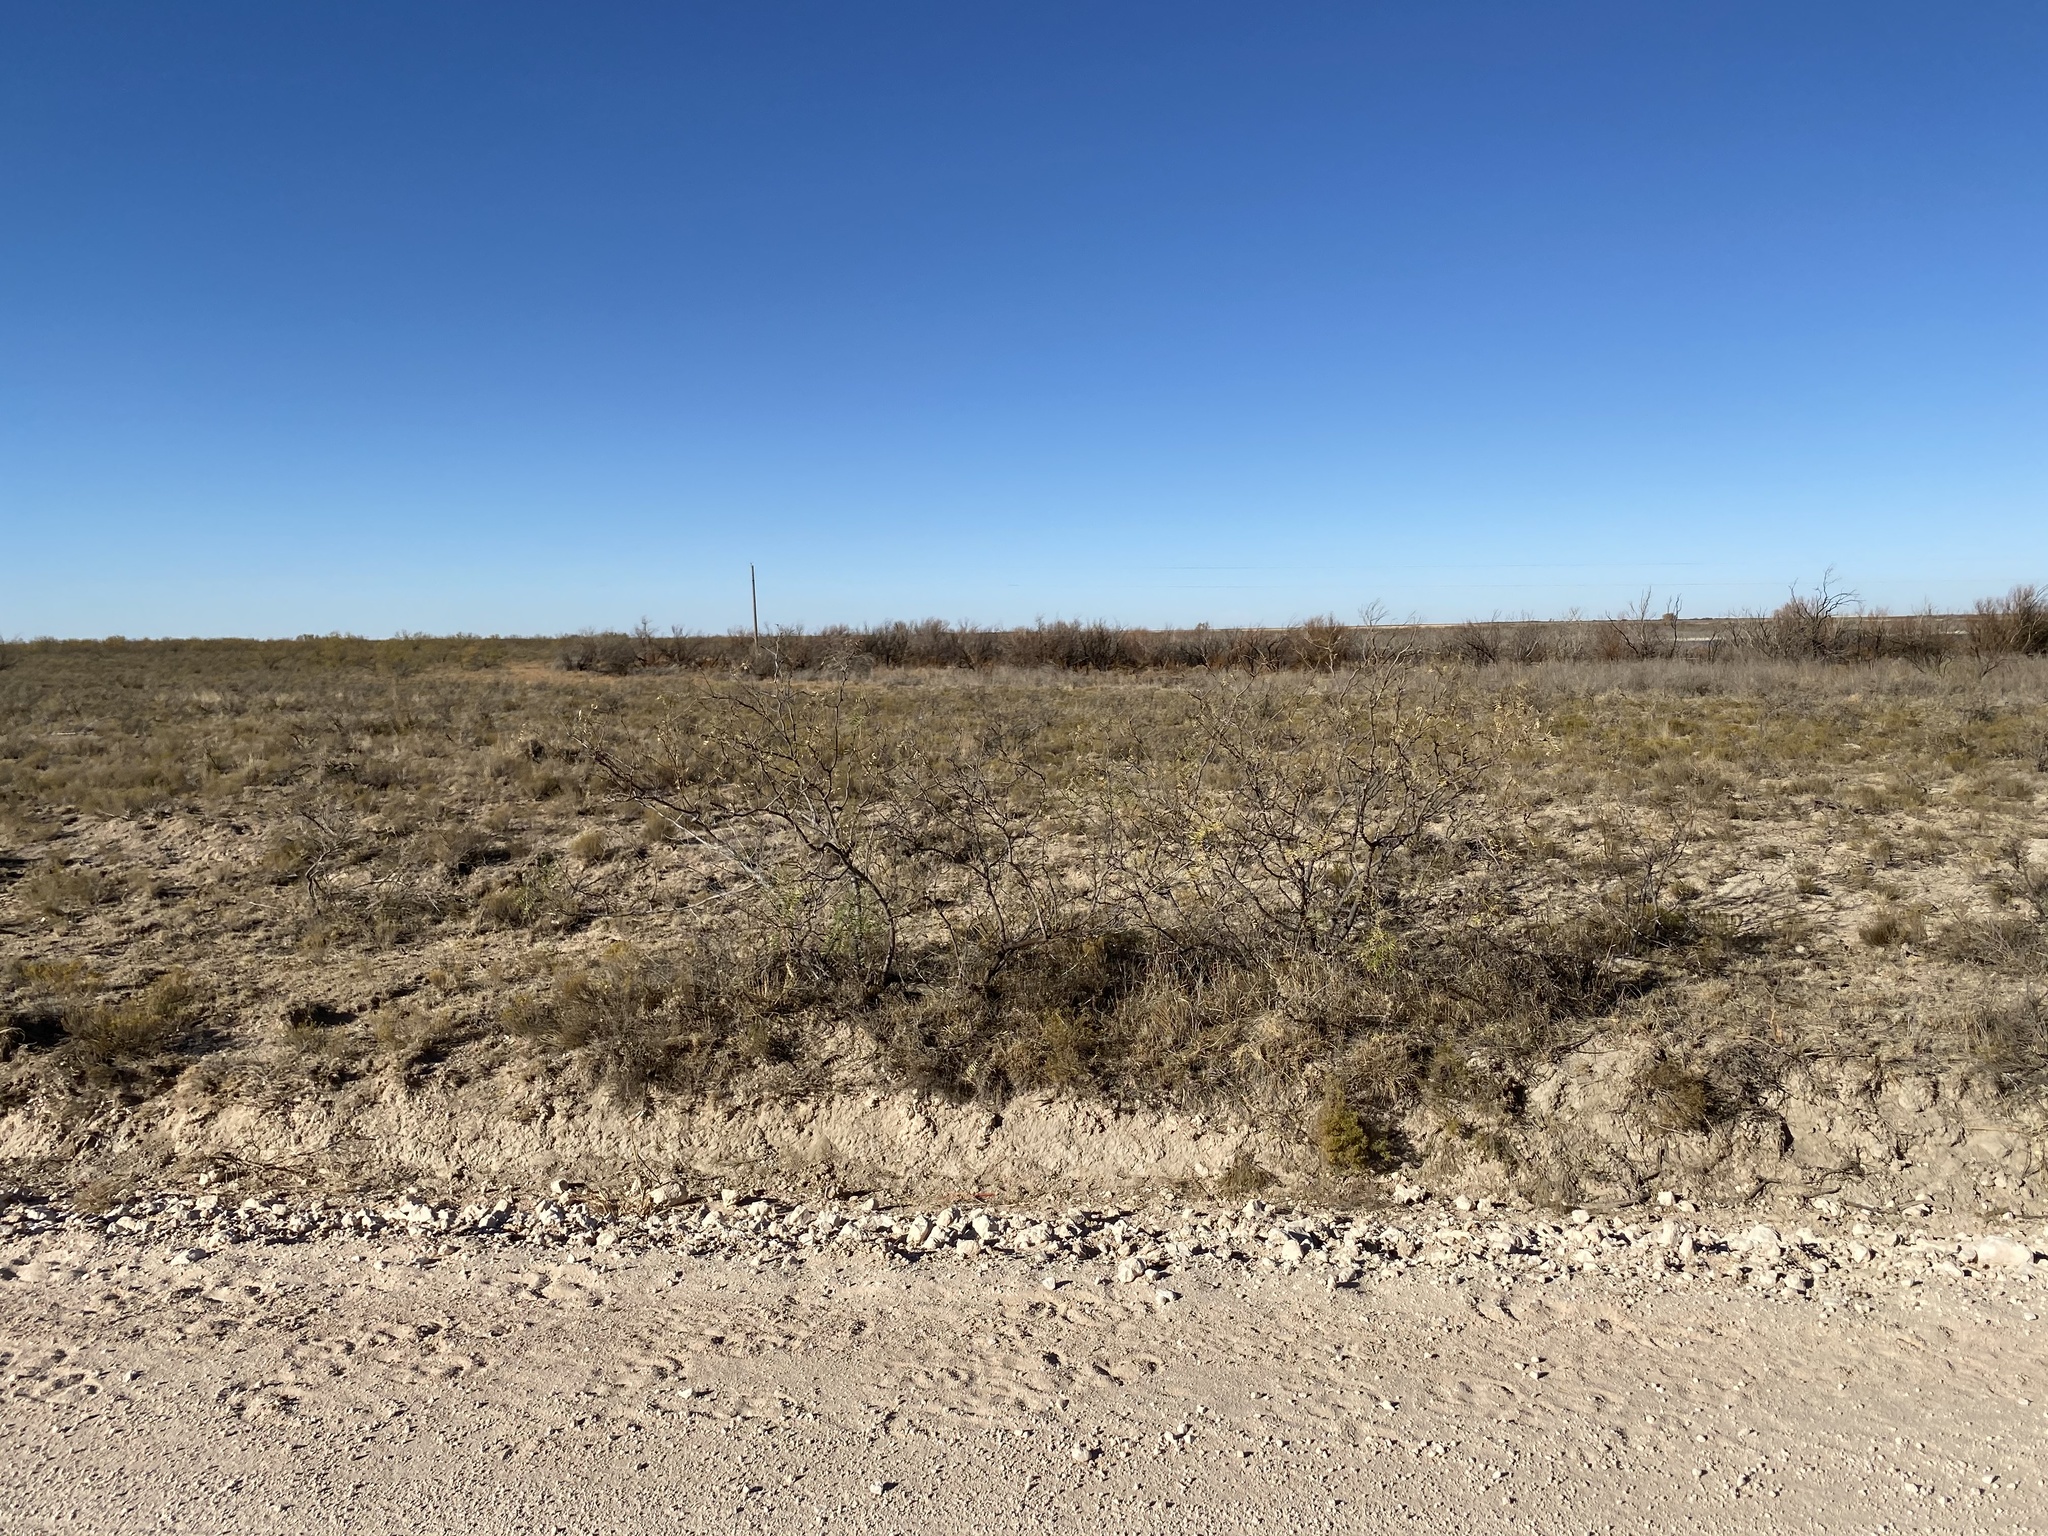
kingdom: Plantae
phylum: Tracheophyta
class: Magnoliopsida
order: Fabales
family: Fabaceae
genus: Prosopis
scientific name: Prosopis glandulosa
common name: Honey mesquite
